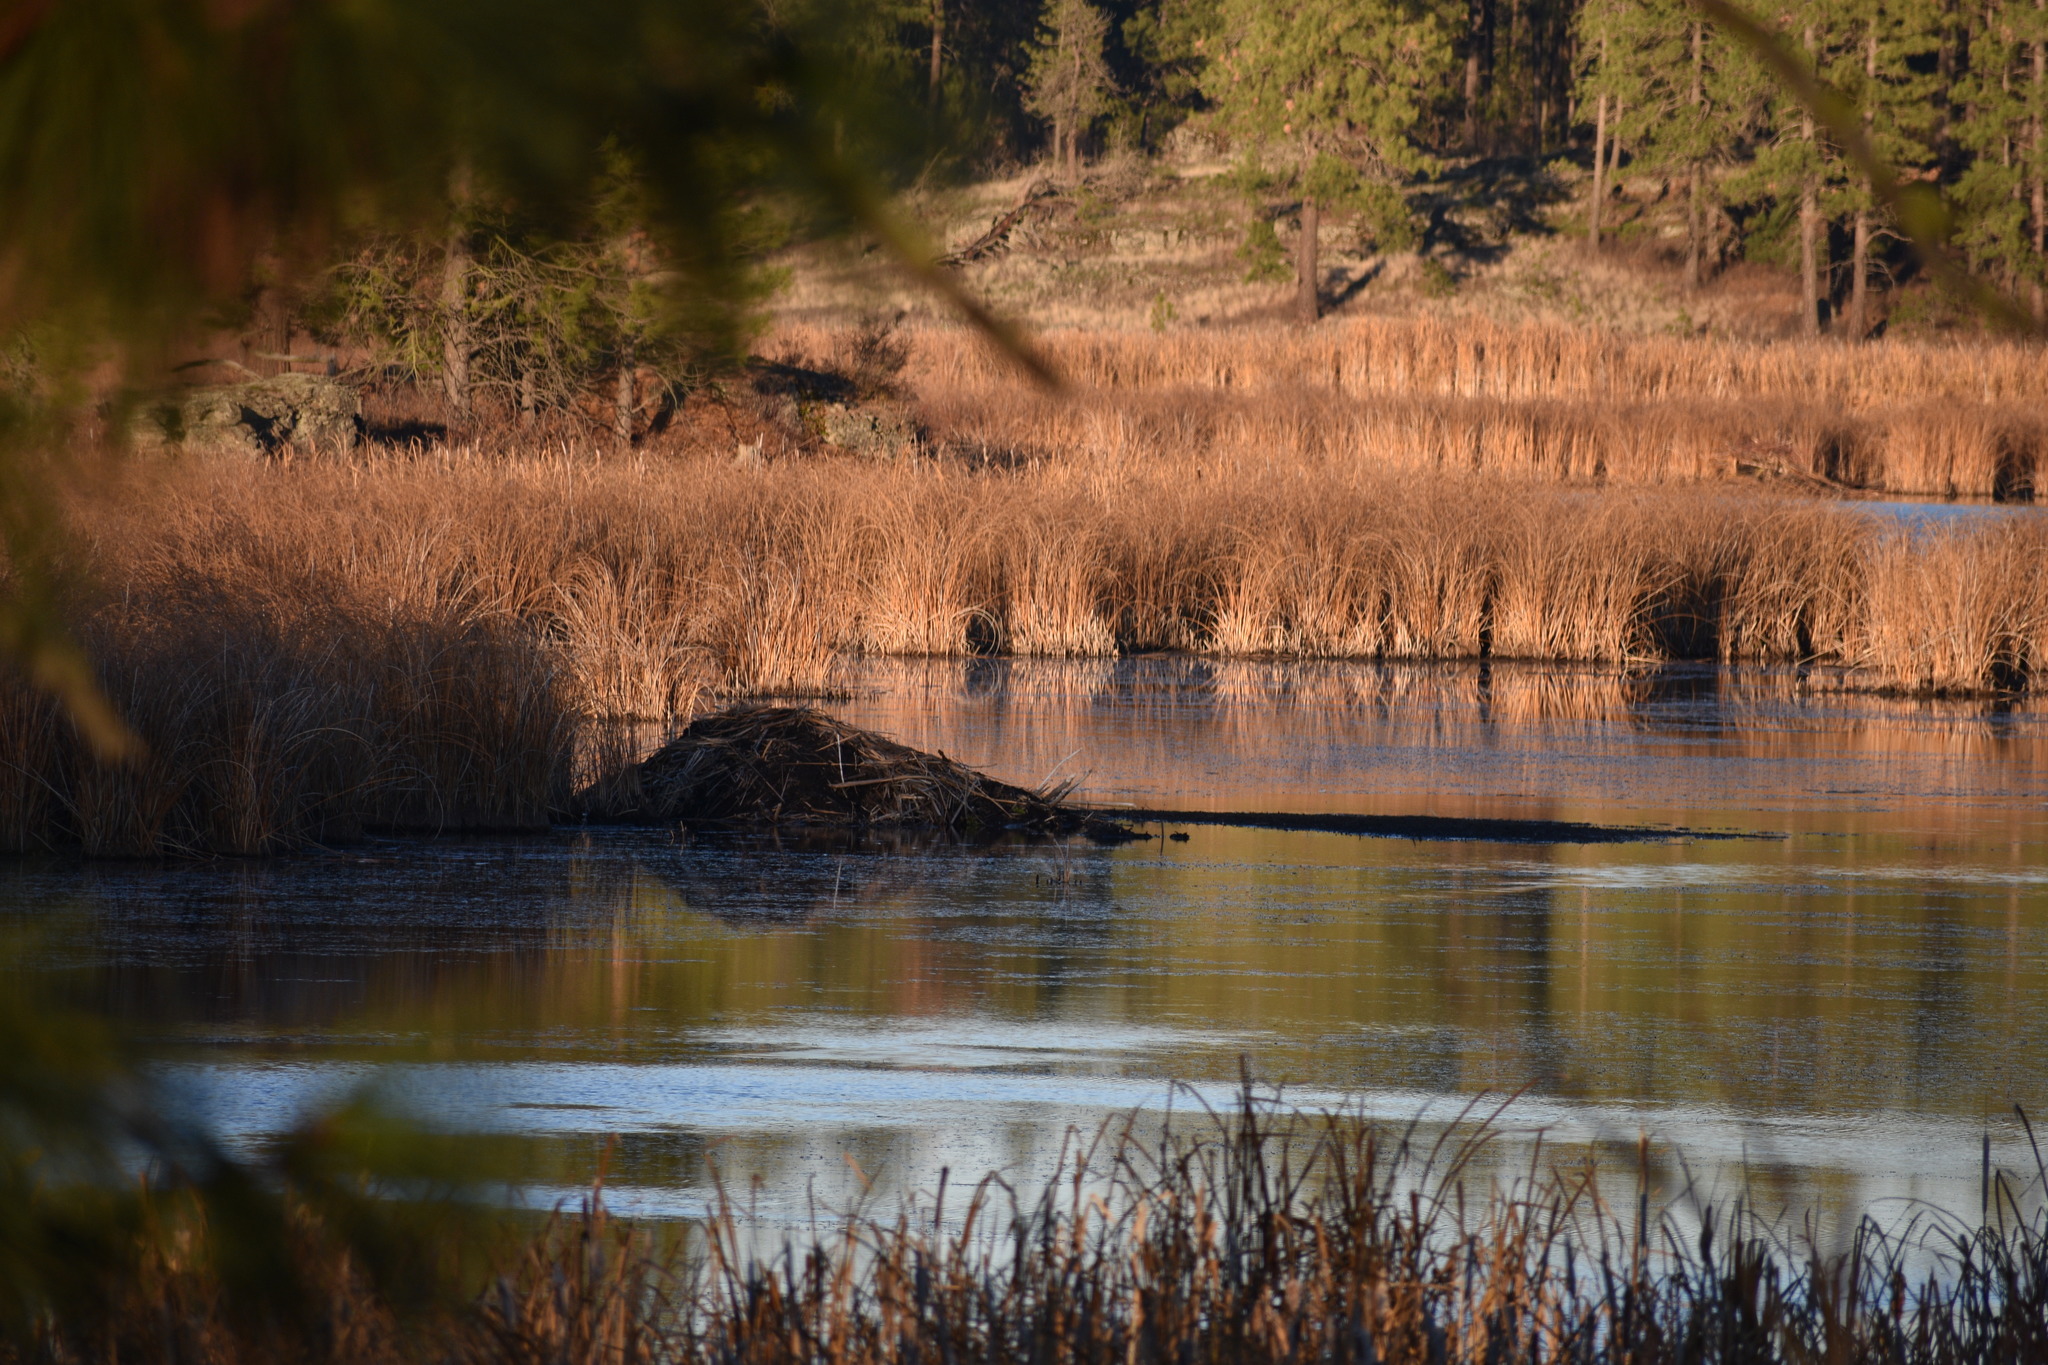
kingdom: Animalia
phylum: Chordata
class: Mammalia
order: Rodentia
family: Castoridae
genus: Castor
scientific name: Castor canadensis
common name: American beaver
